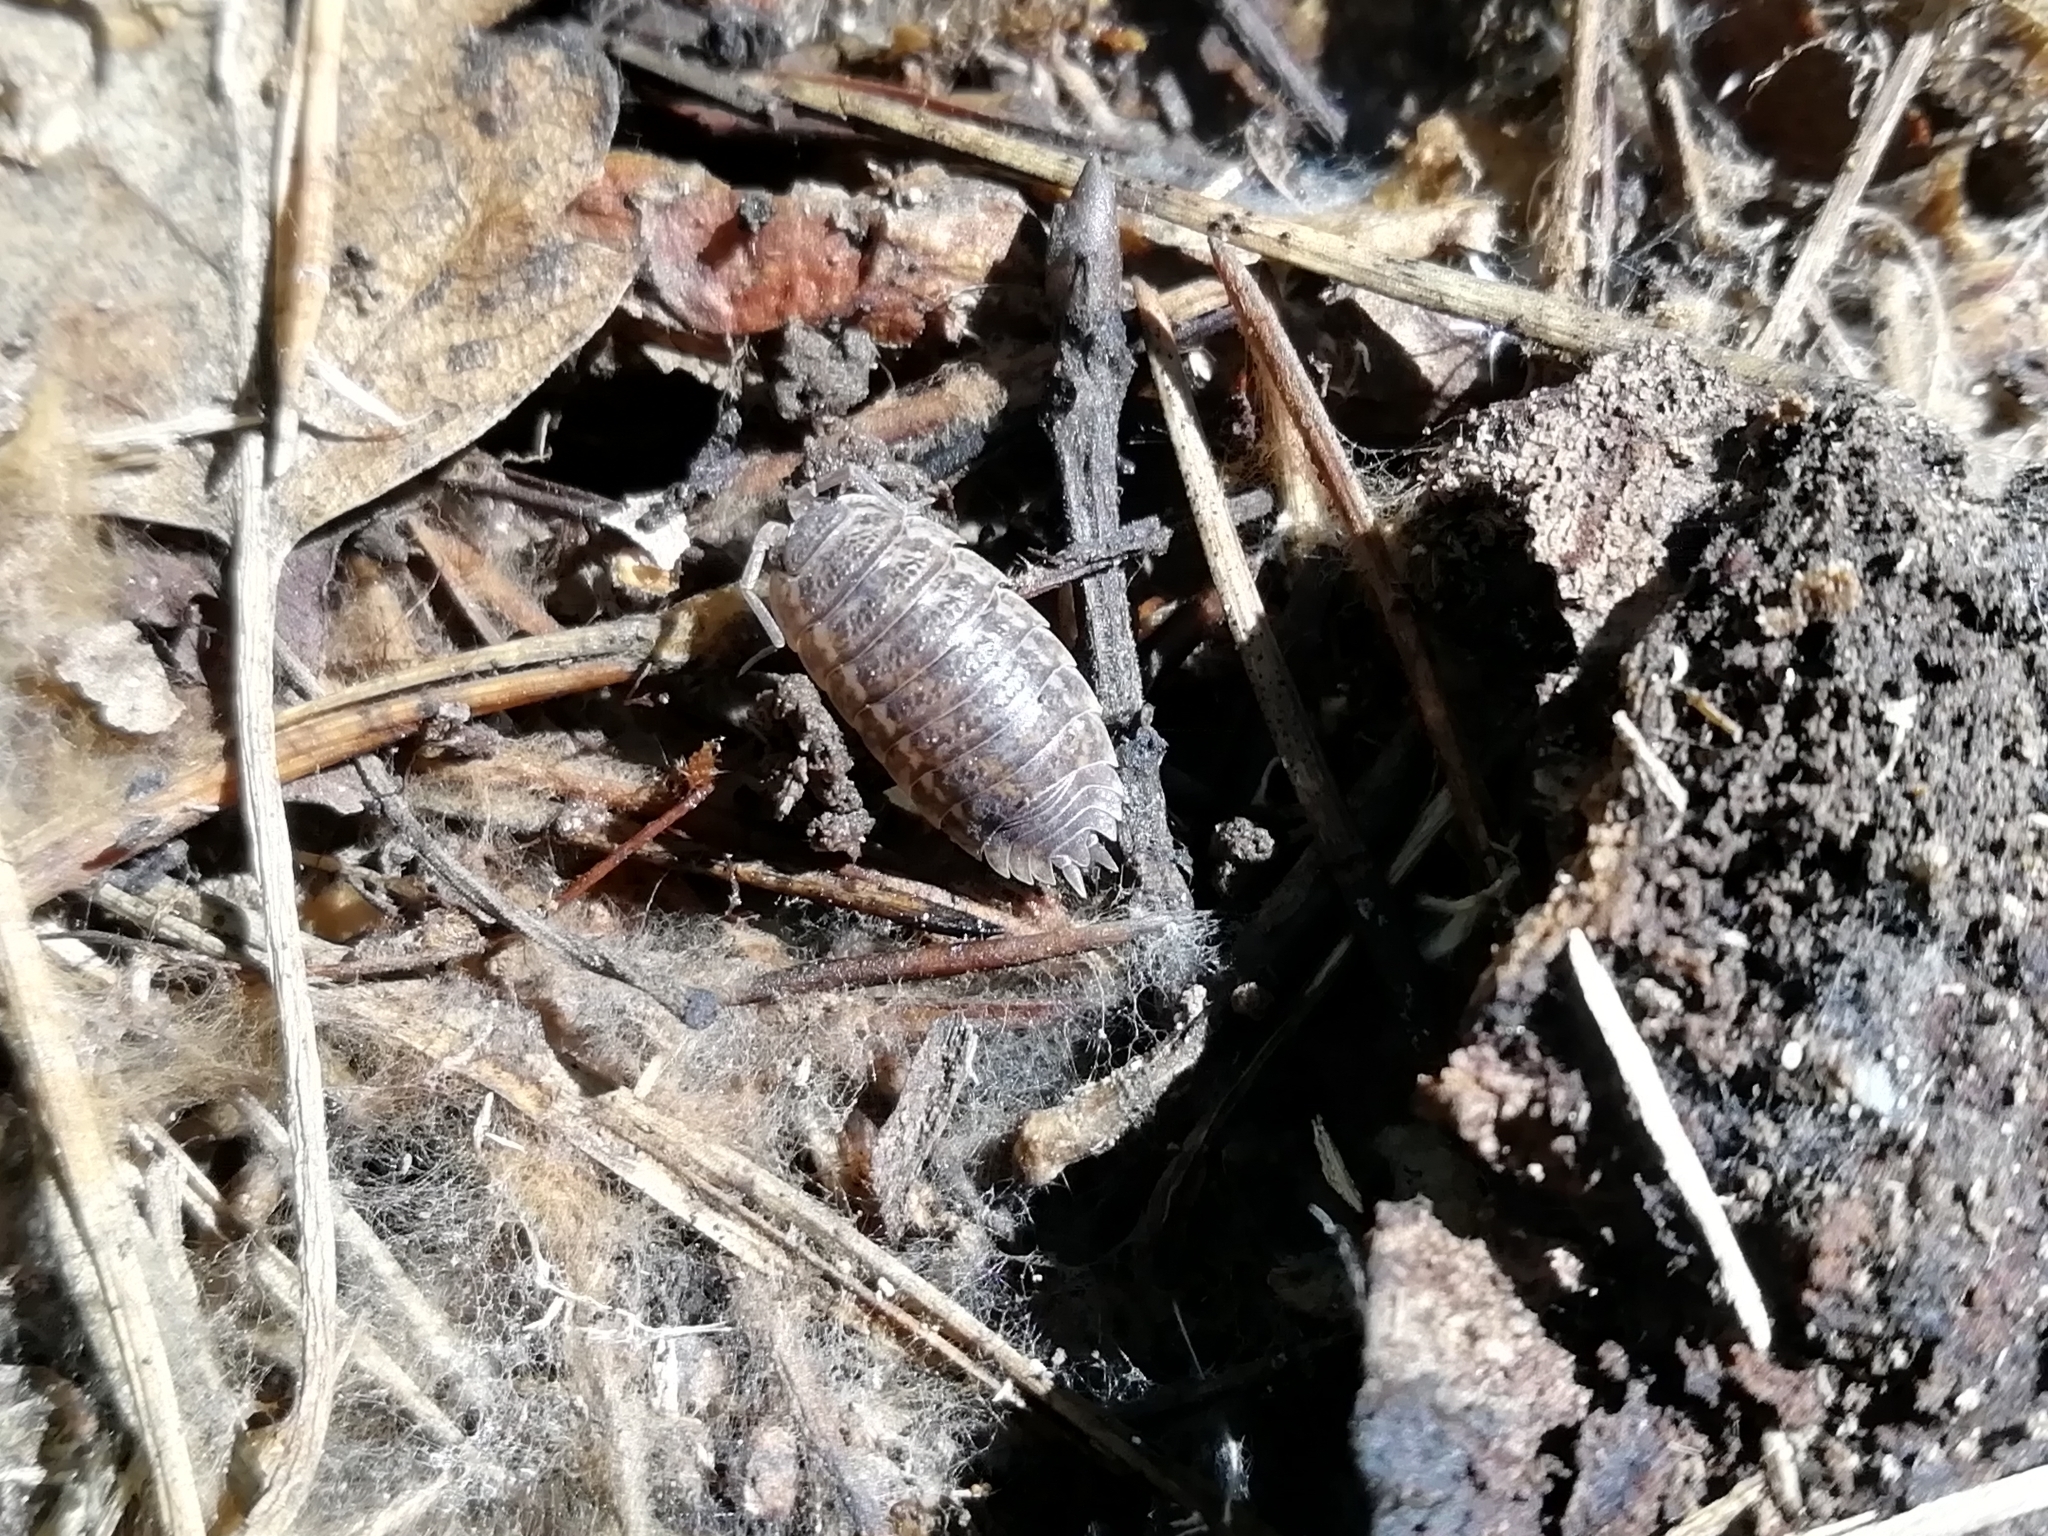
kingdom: Animalia
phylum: Arthropoda
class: Malacostraca
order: Isopoda
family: Trachelipodidae
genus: Trachelipus
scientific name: Trachelipus rathkii
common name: Isopod
